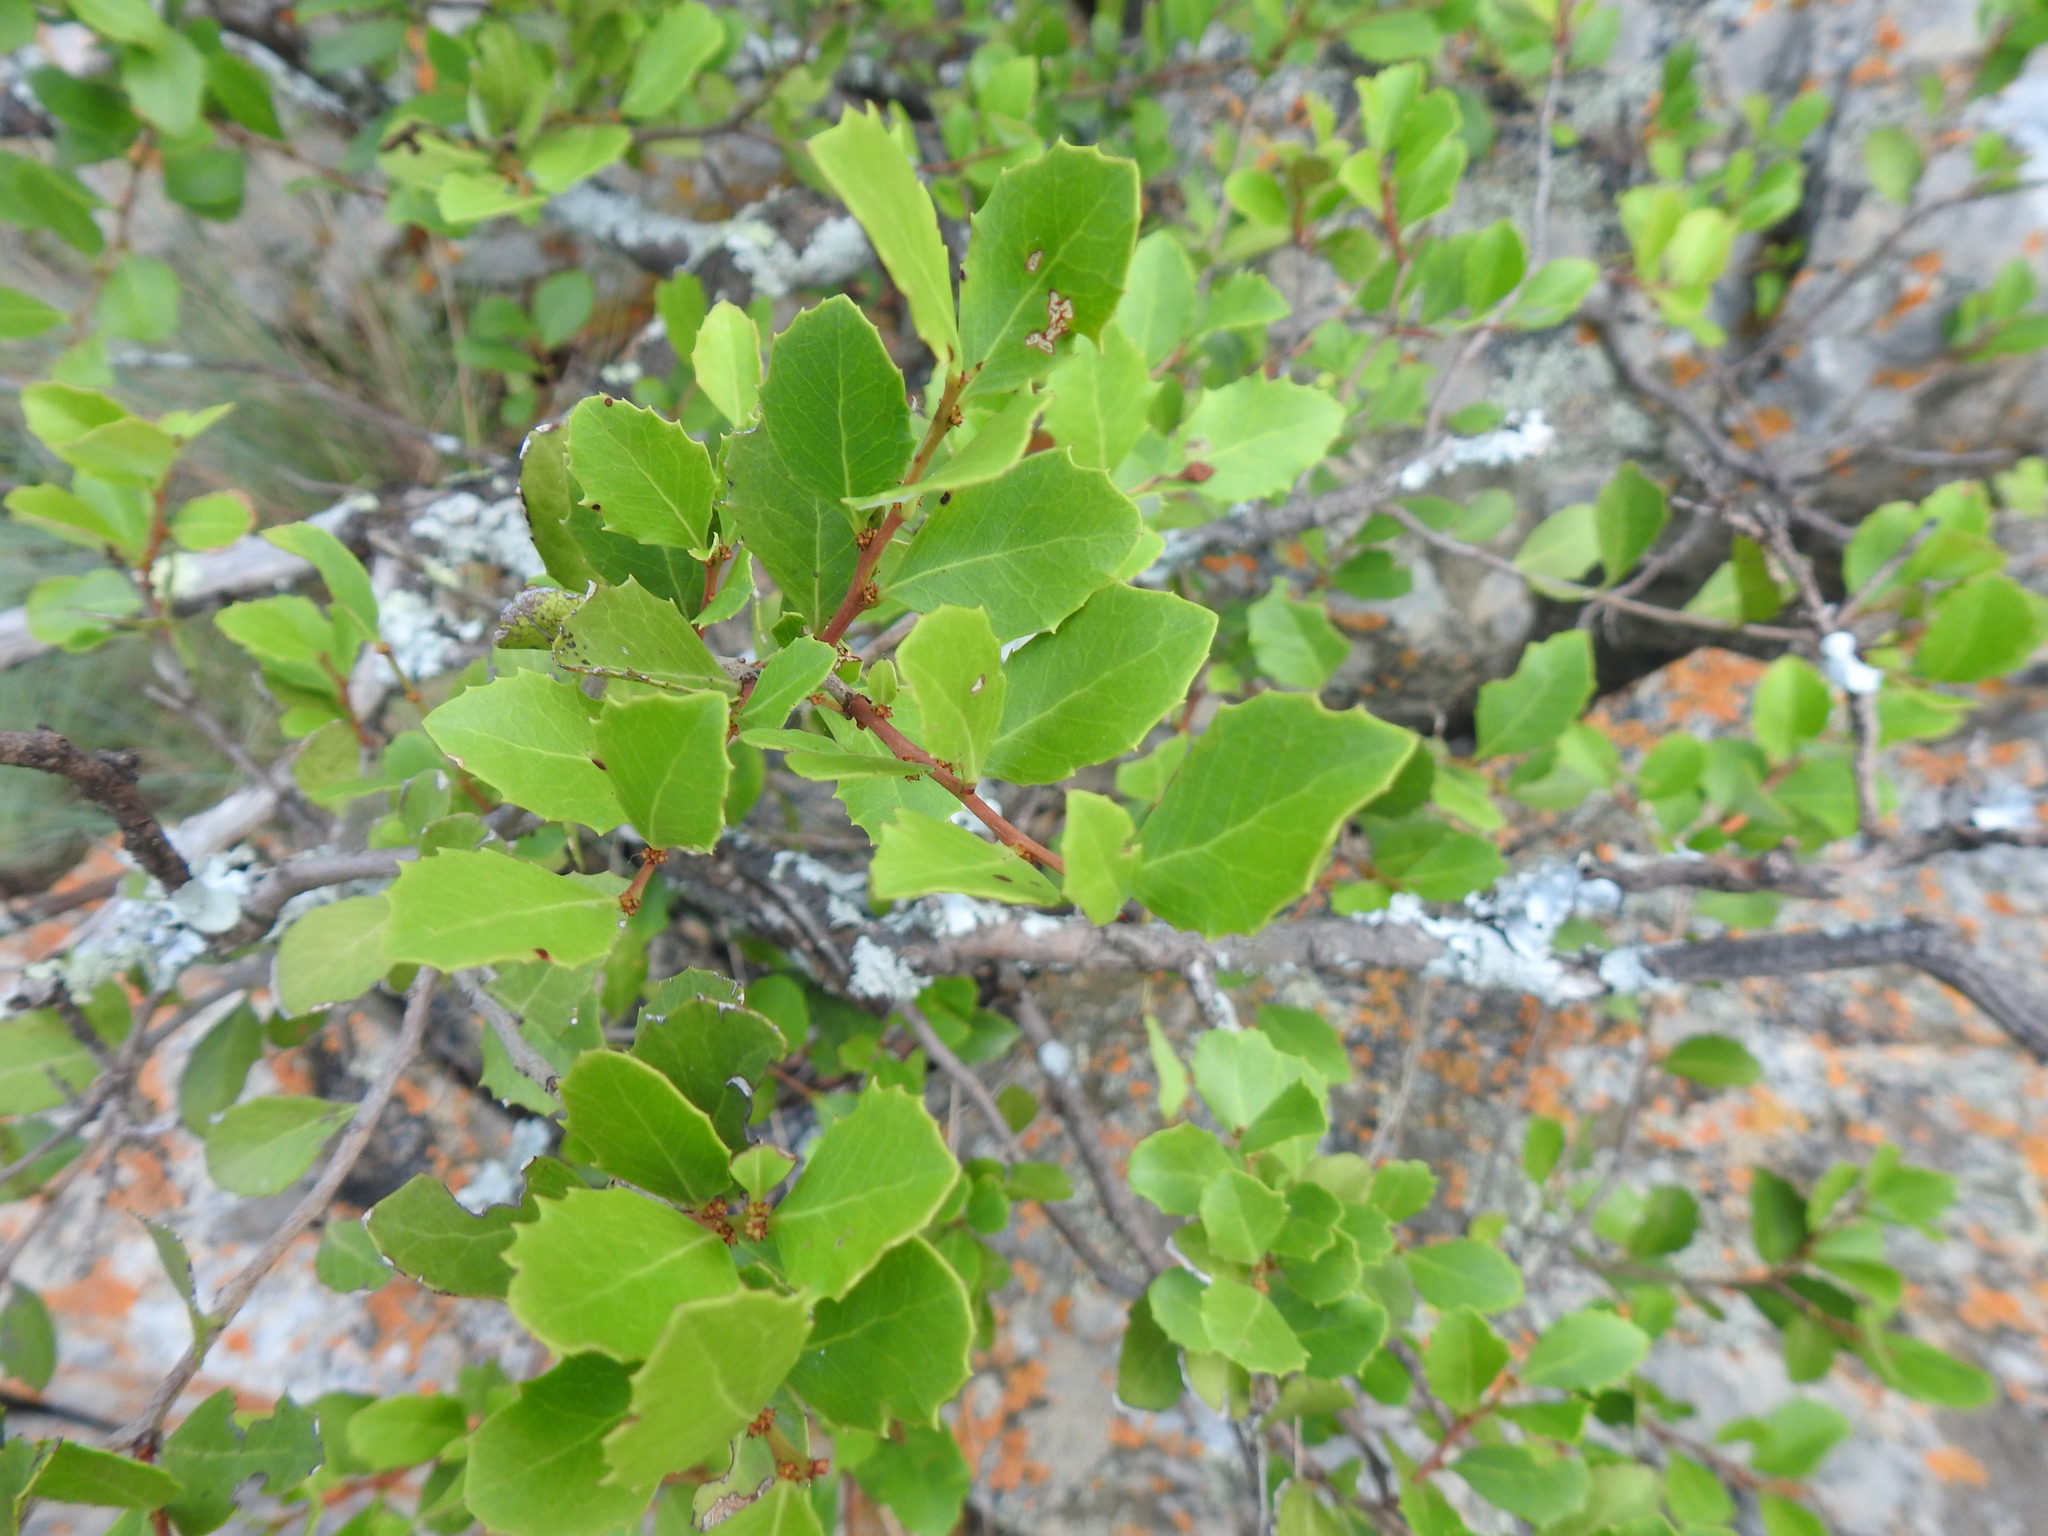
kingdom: Plantae
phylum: Tracheophyta
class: Magnoliopsida
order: Celastrales
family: Celastraceae
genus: Gymnosporia
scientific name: Gymnosporia undata
